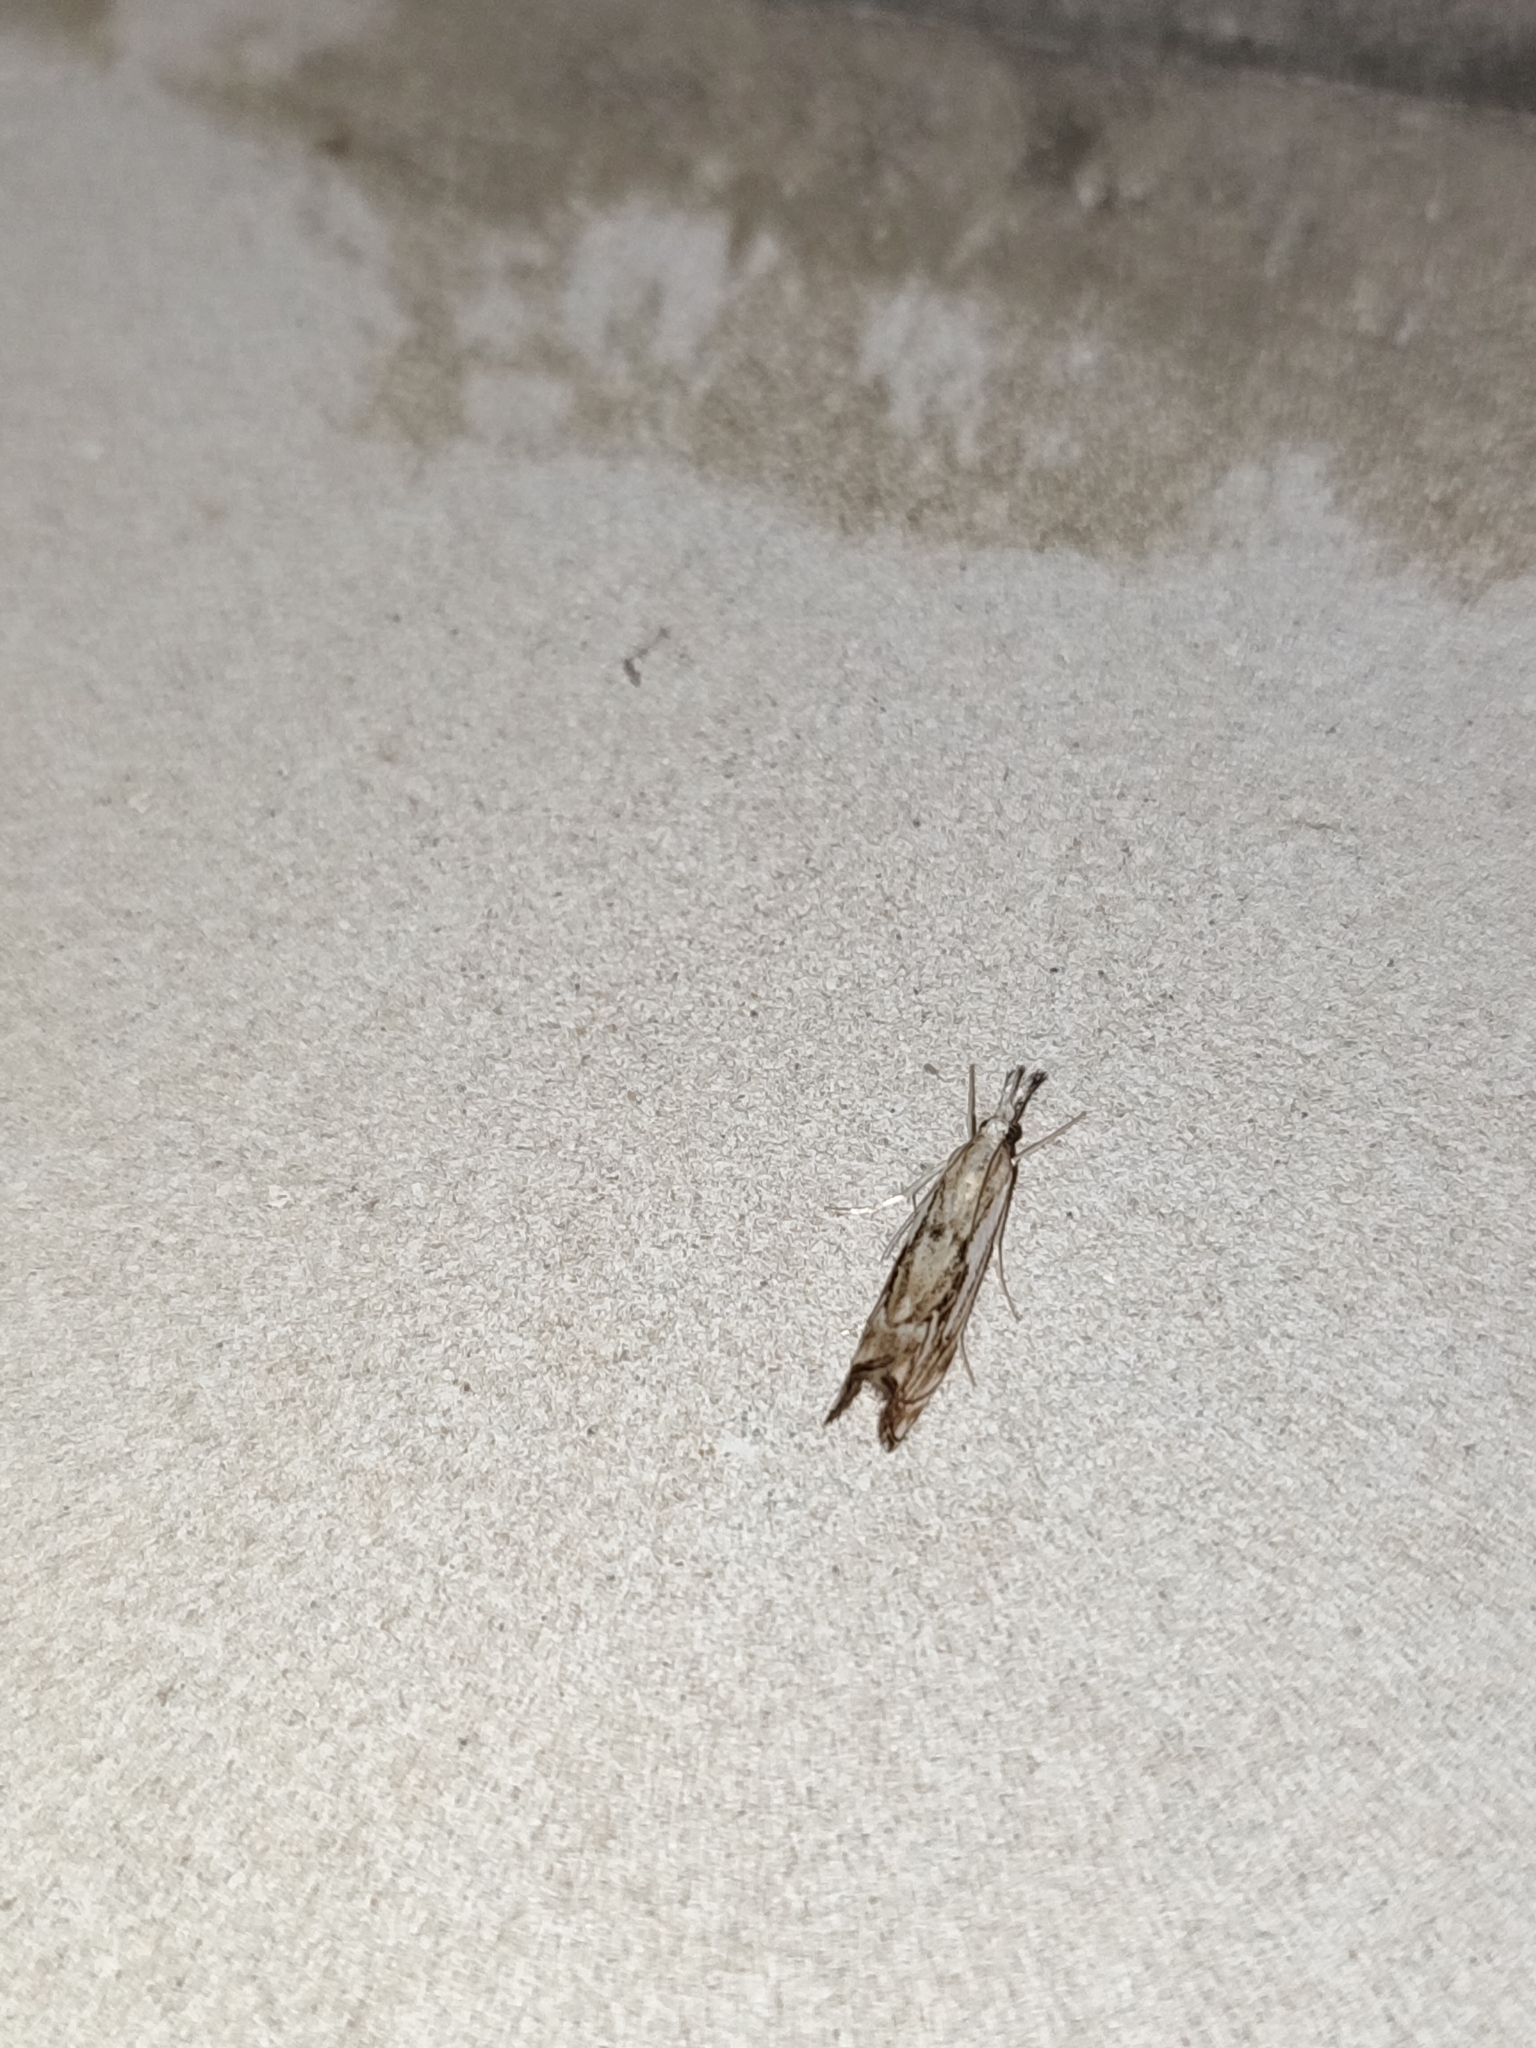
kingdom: Animalia
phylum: Arthropoda
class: Insecta
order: Lepidoptera
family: Crambidae
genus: Catoptria
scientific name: Catoptria falsella
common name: Chequered grass-veneer
